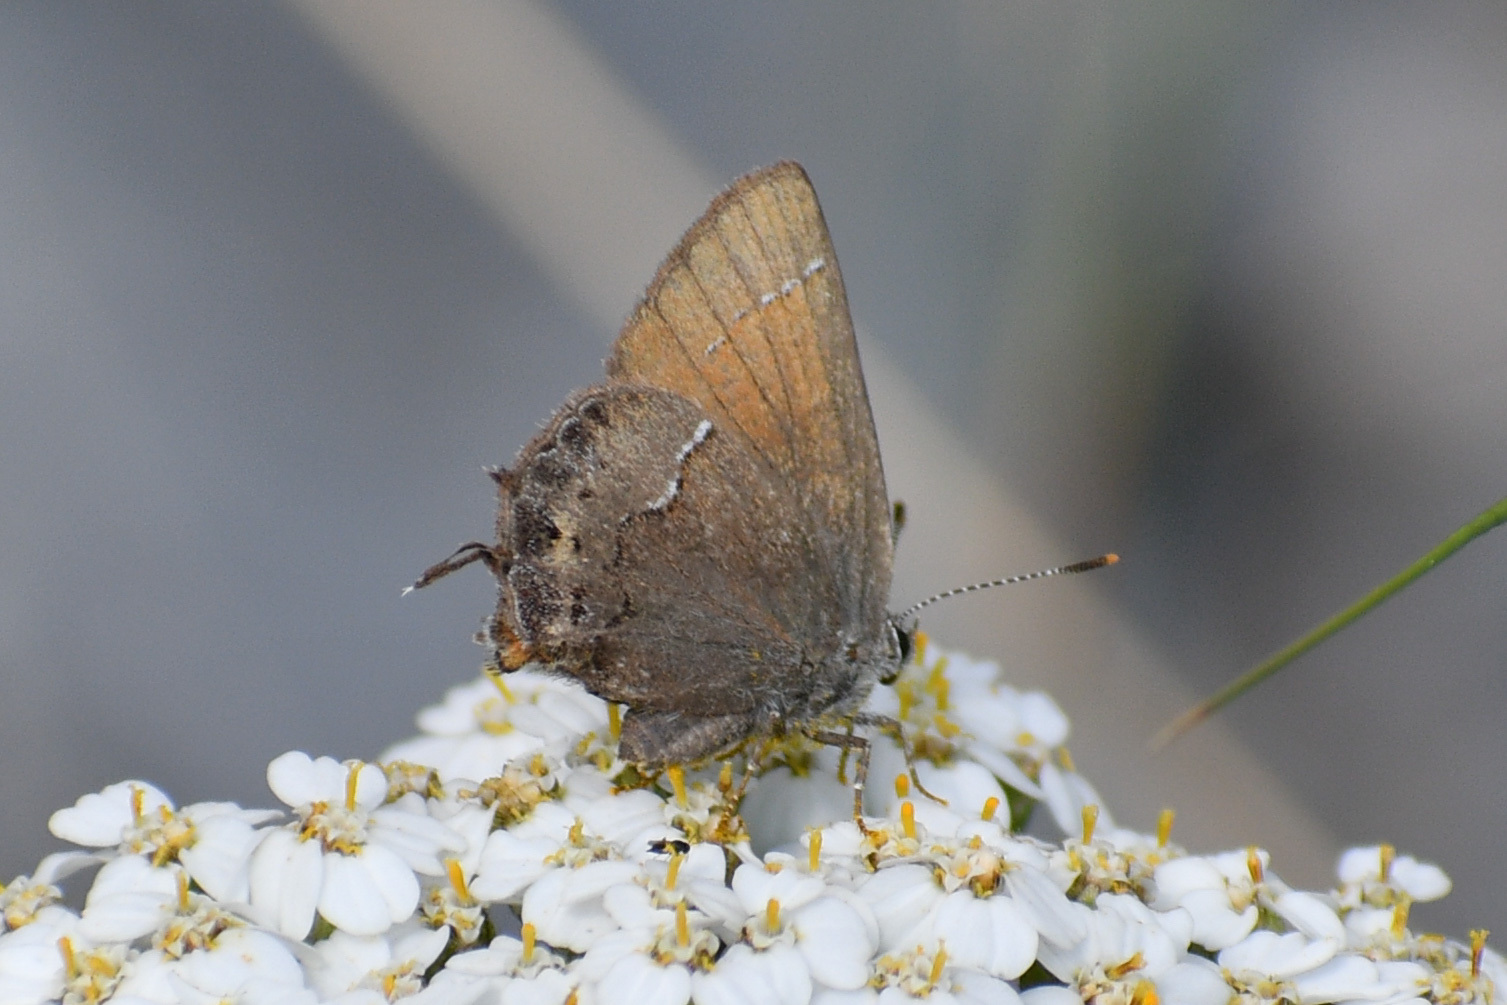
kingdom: Animalia
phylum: Arthropoda
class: Insecta
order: Lepidoptera
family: Lycaenidae
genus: Mitoura
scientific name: Mitoura gryneus
